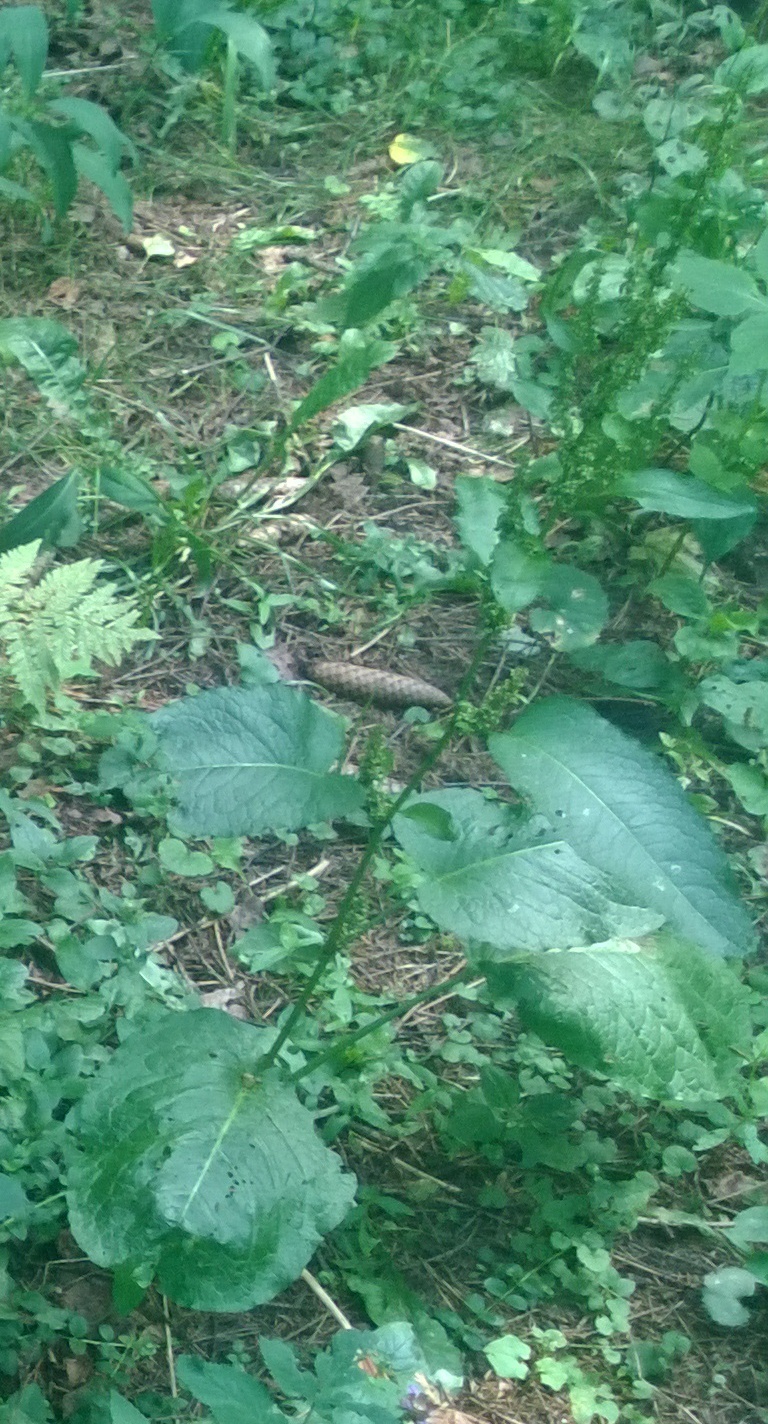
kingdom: Plantae
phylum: Tracheophyta
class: Magnoliopsida
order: Caryophyllales
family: Polygonaceae
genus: Rumex
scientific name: Rumex obtusifolius
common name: Bitter dock
